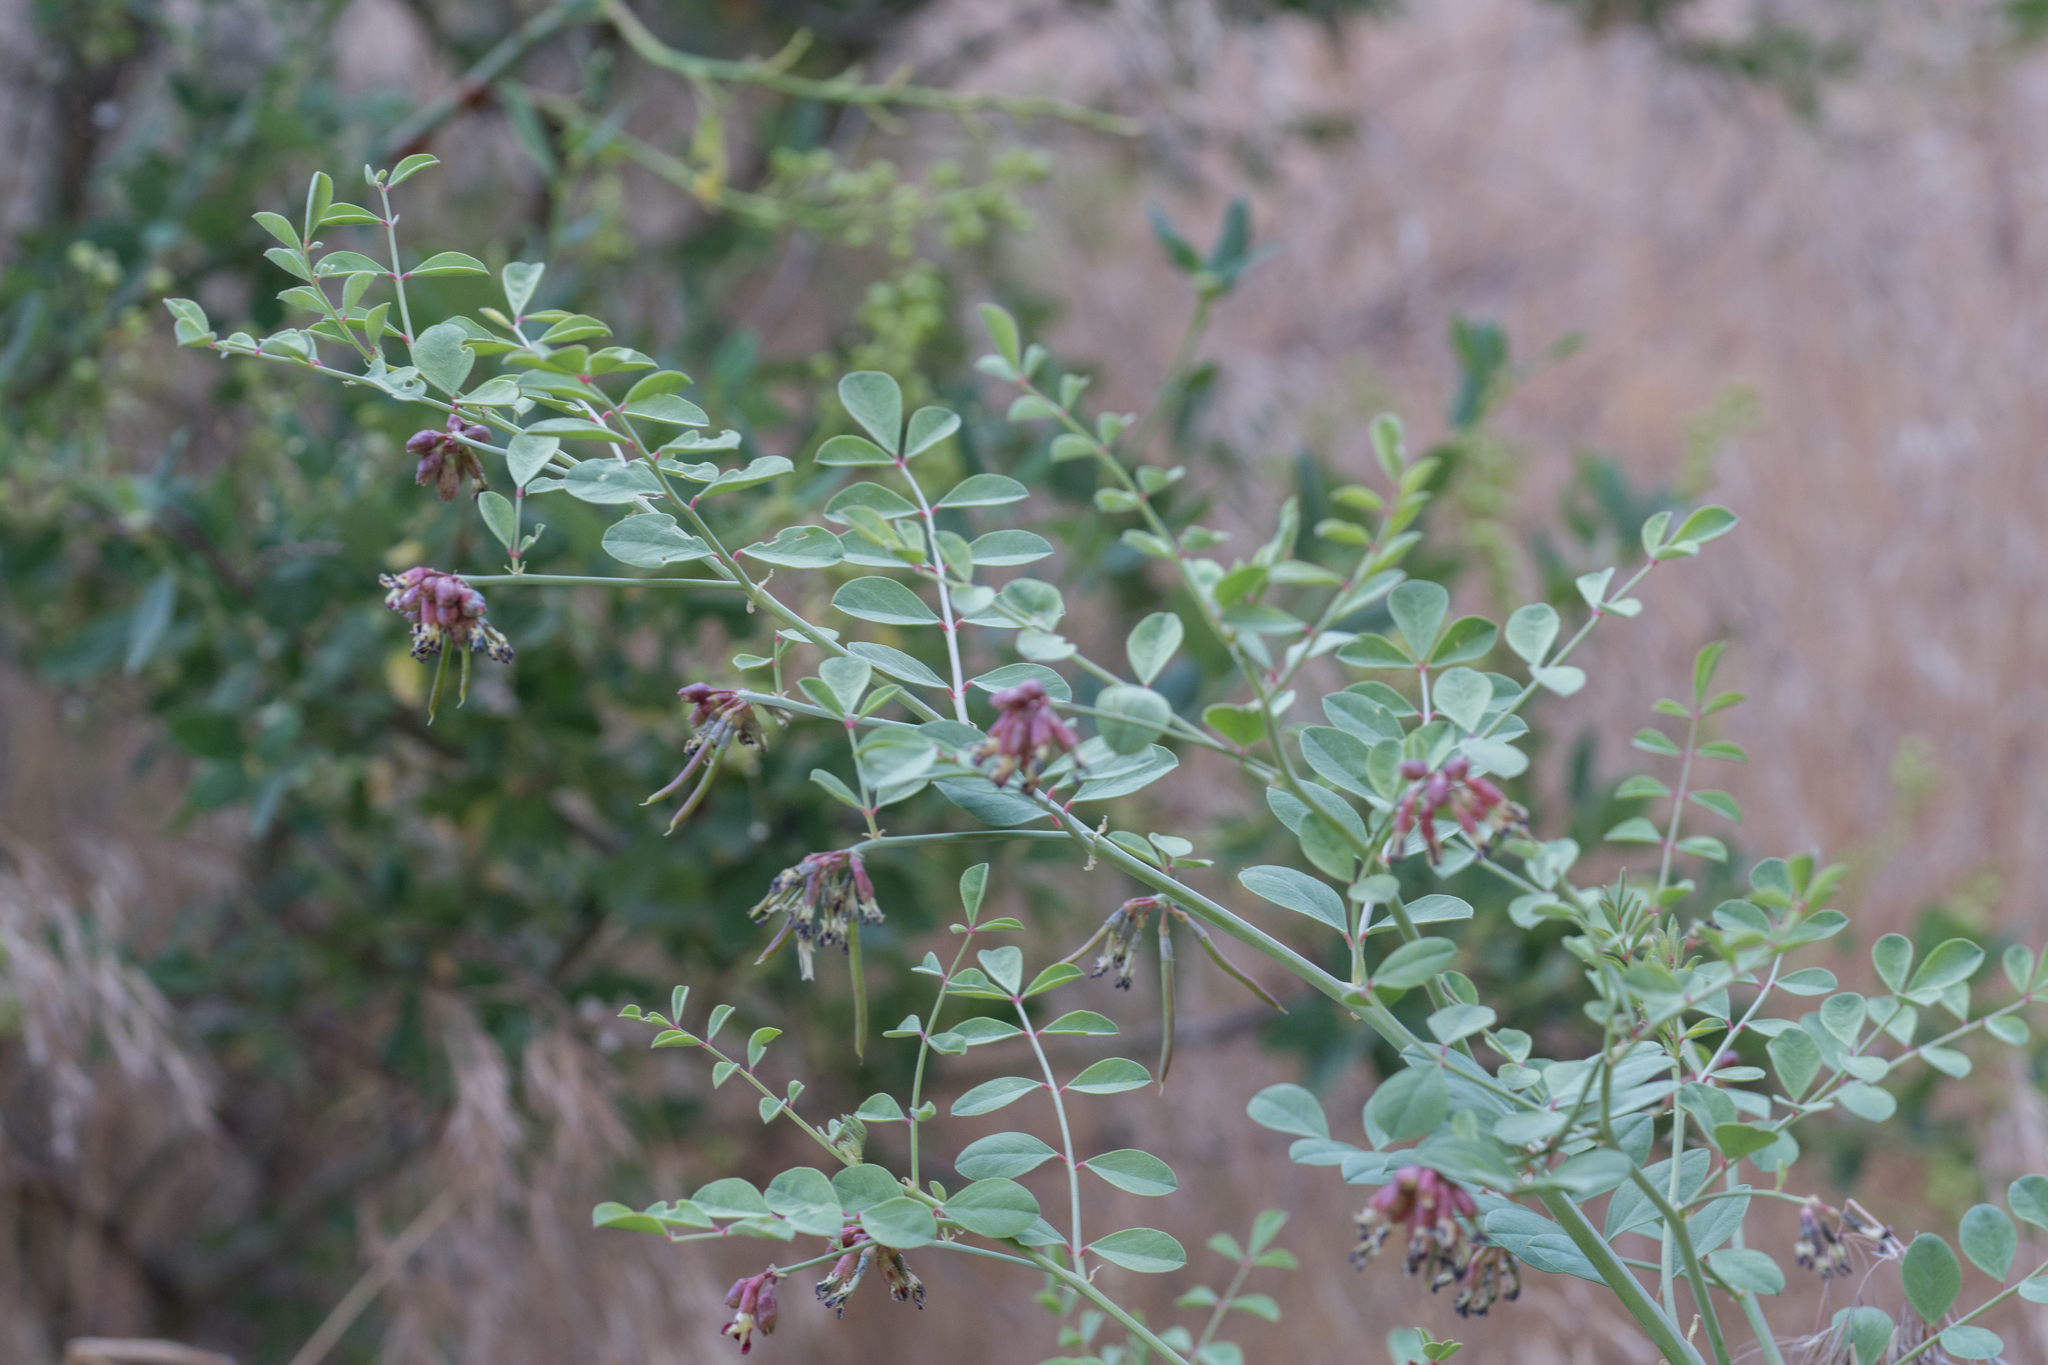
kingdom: Plantae
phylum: Tracheophyta
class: Magnoliopsida
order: Fabales
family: Fabaceae
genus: Hosackia
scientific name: Hosackia crassifolia
